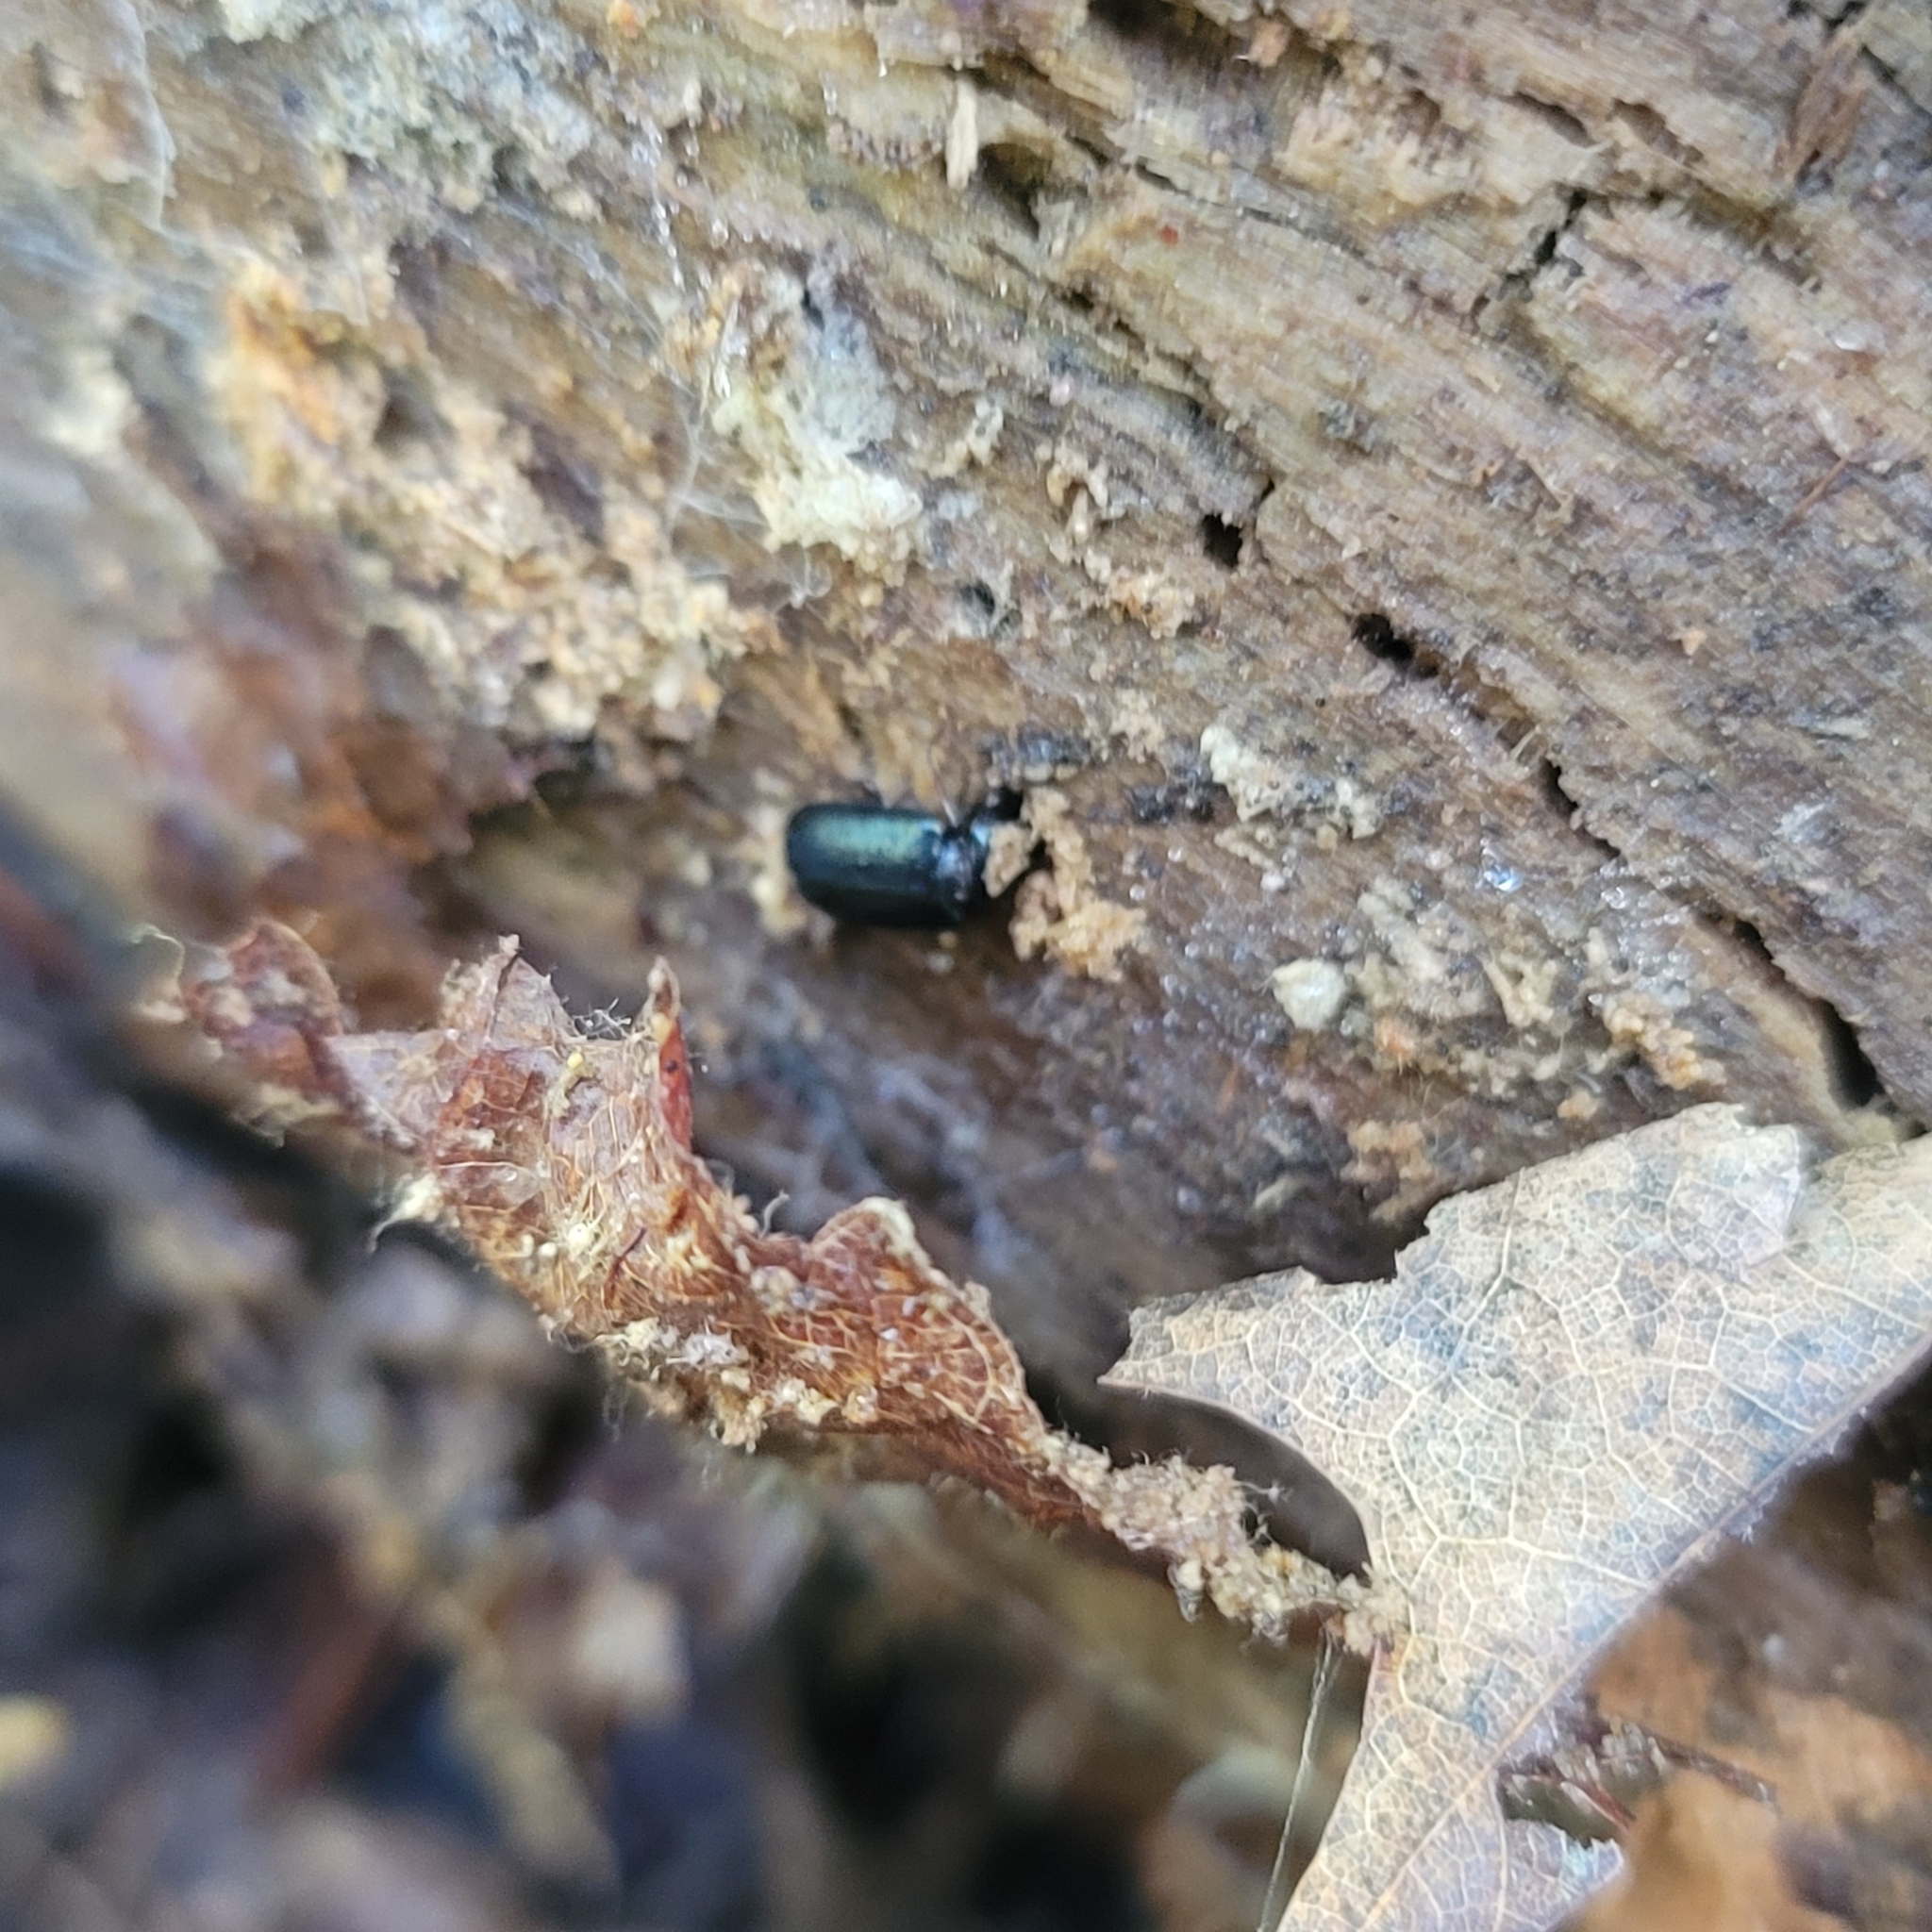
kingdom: Animalia
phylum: Arthropoda
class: Insecta
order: Coleoptera
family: Lucanidae
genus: Platycerus
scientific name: Platycerus quercus
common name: Oak stag beetle
